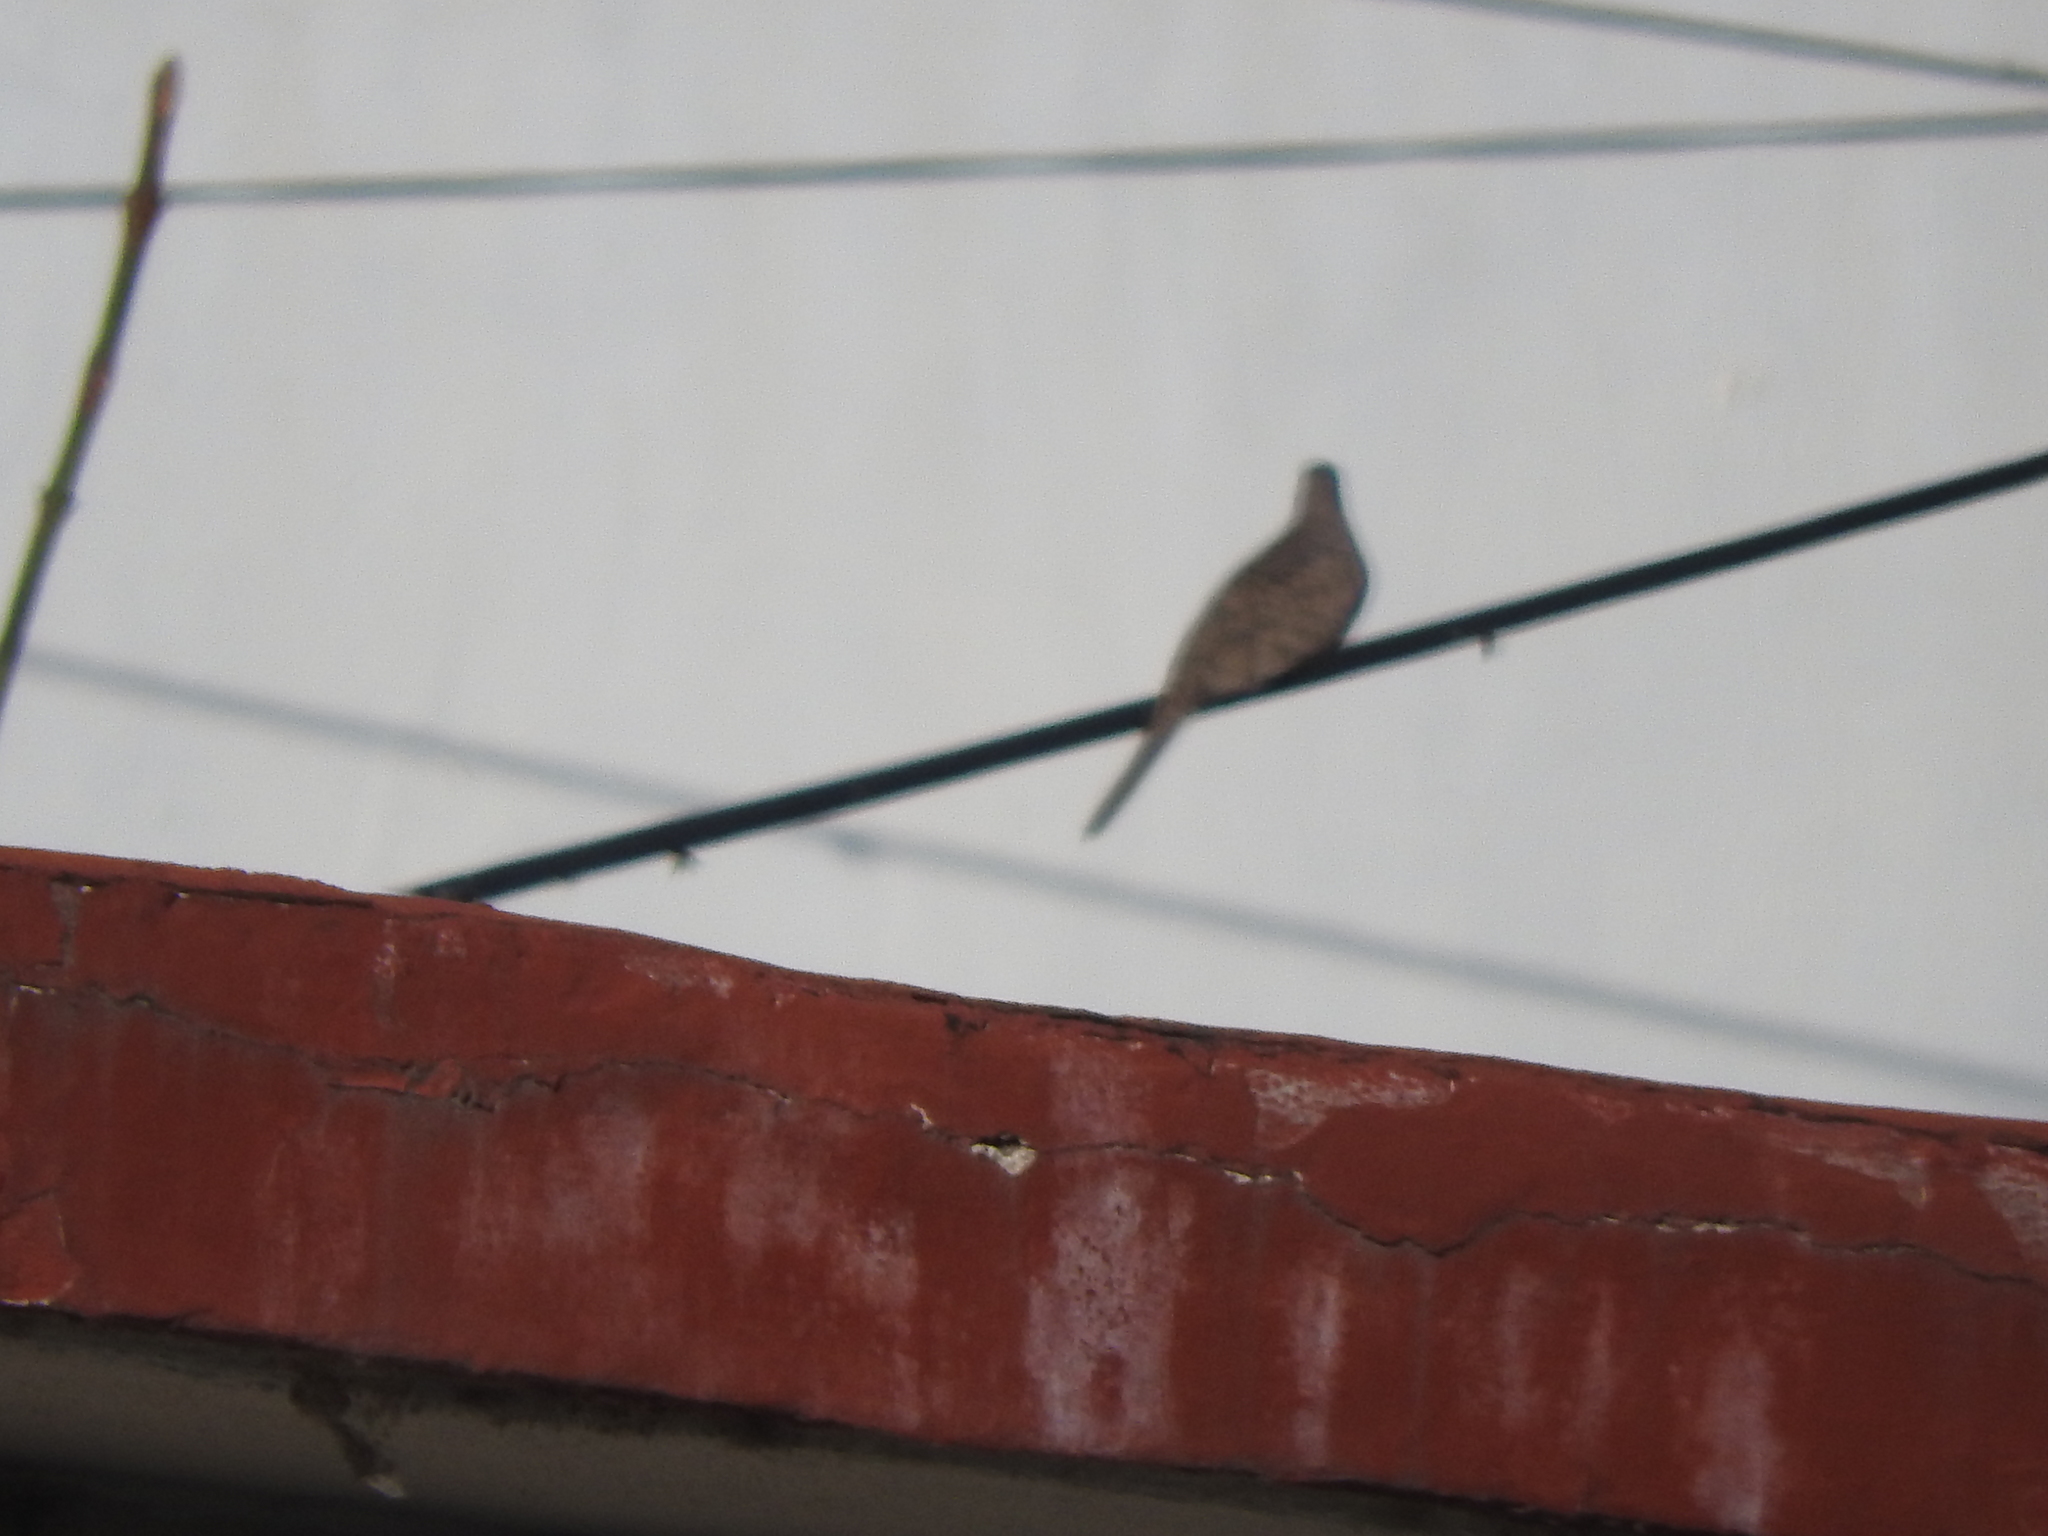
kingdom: Animalia
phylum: Chordata
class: Aves
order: Columbiformes
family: Columbidae
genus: Columbina
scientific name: Columbina inca
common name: Inca dove
